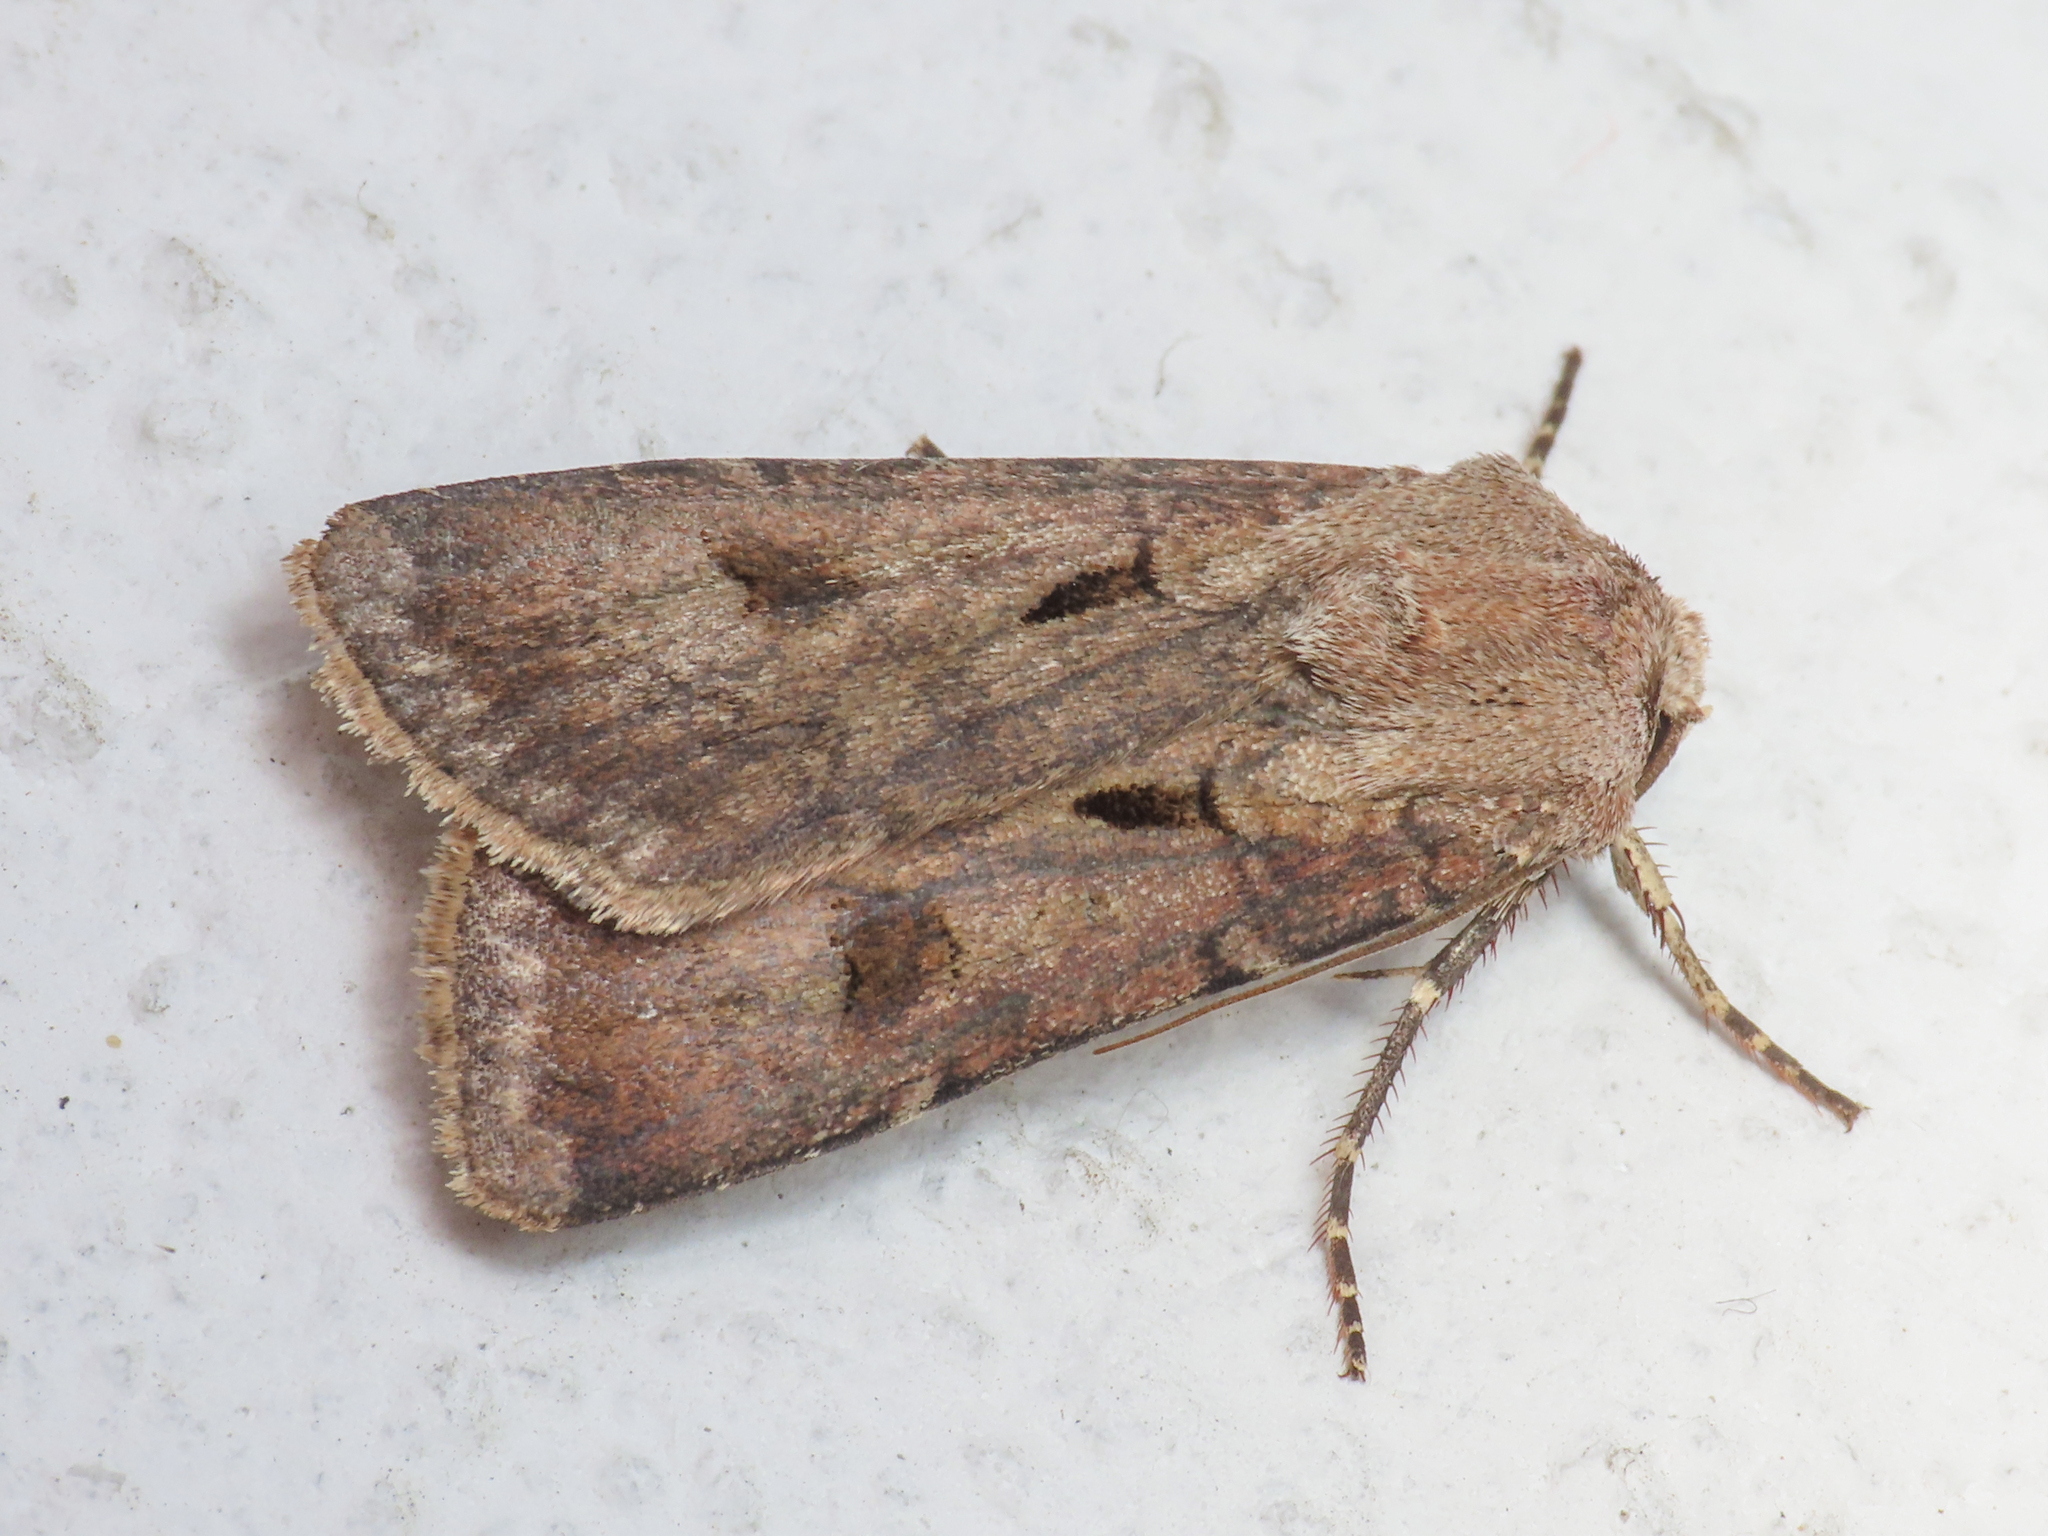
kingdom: Animalia
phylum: Arthropoda
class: Insecta
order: Lepidoptera
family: Noctuidae
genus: Agrotis
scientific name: Agrotis exclamationis
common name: Heart and dart
